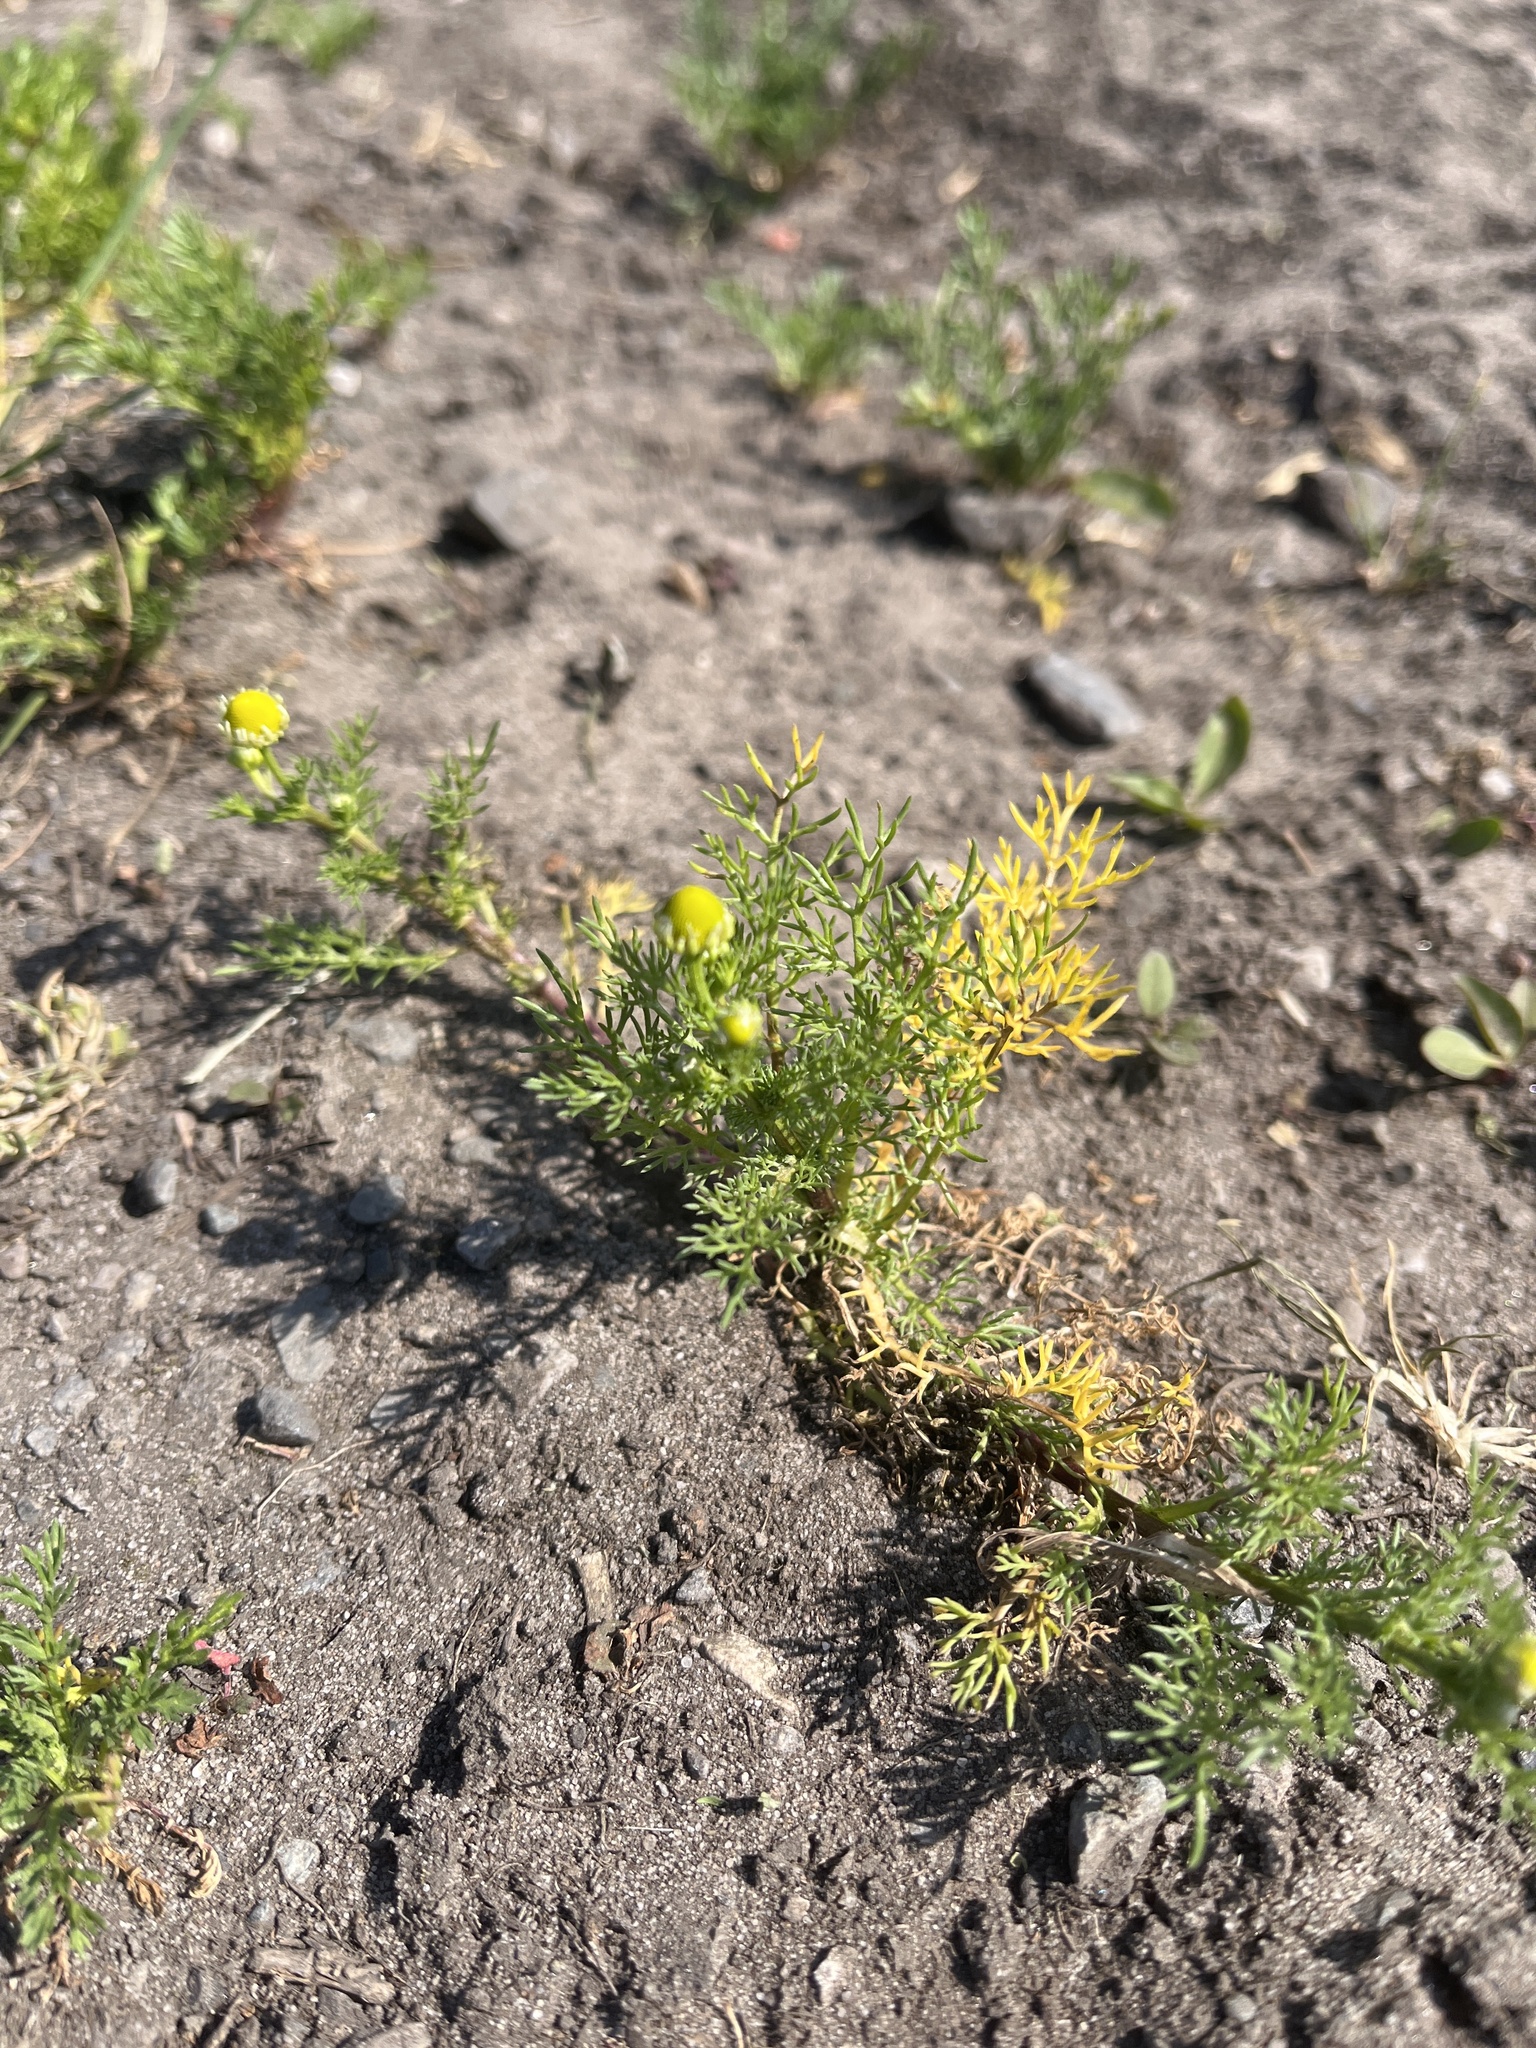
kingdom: Plantae
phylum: Tracheophyta
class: Magnoliopsida
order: Asterales
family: Asteraceae
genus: Matricaria
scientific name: Matricaria discoidea
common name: Disc mayweed
